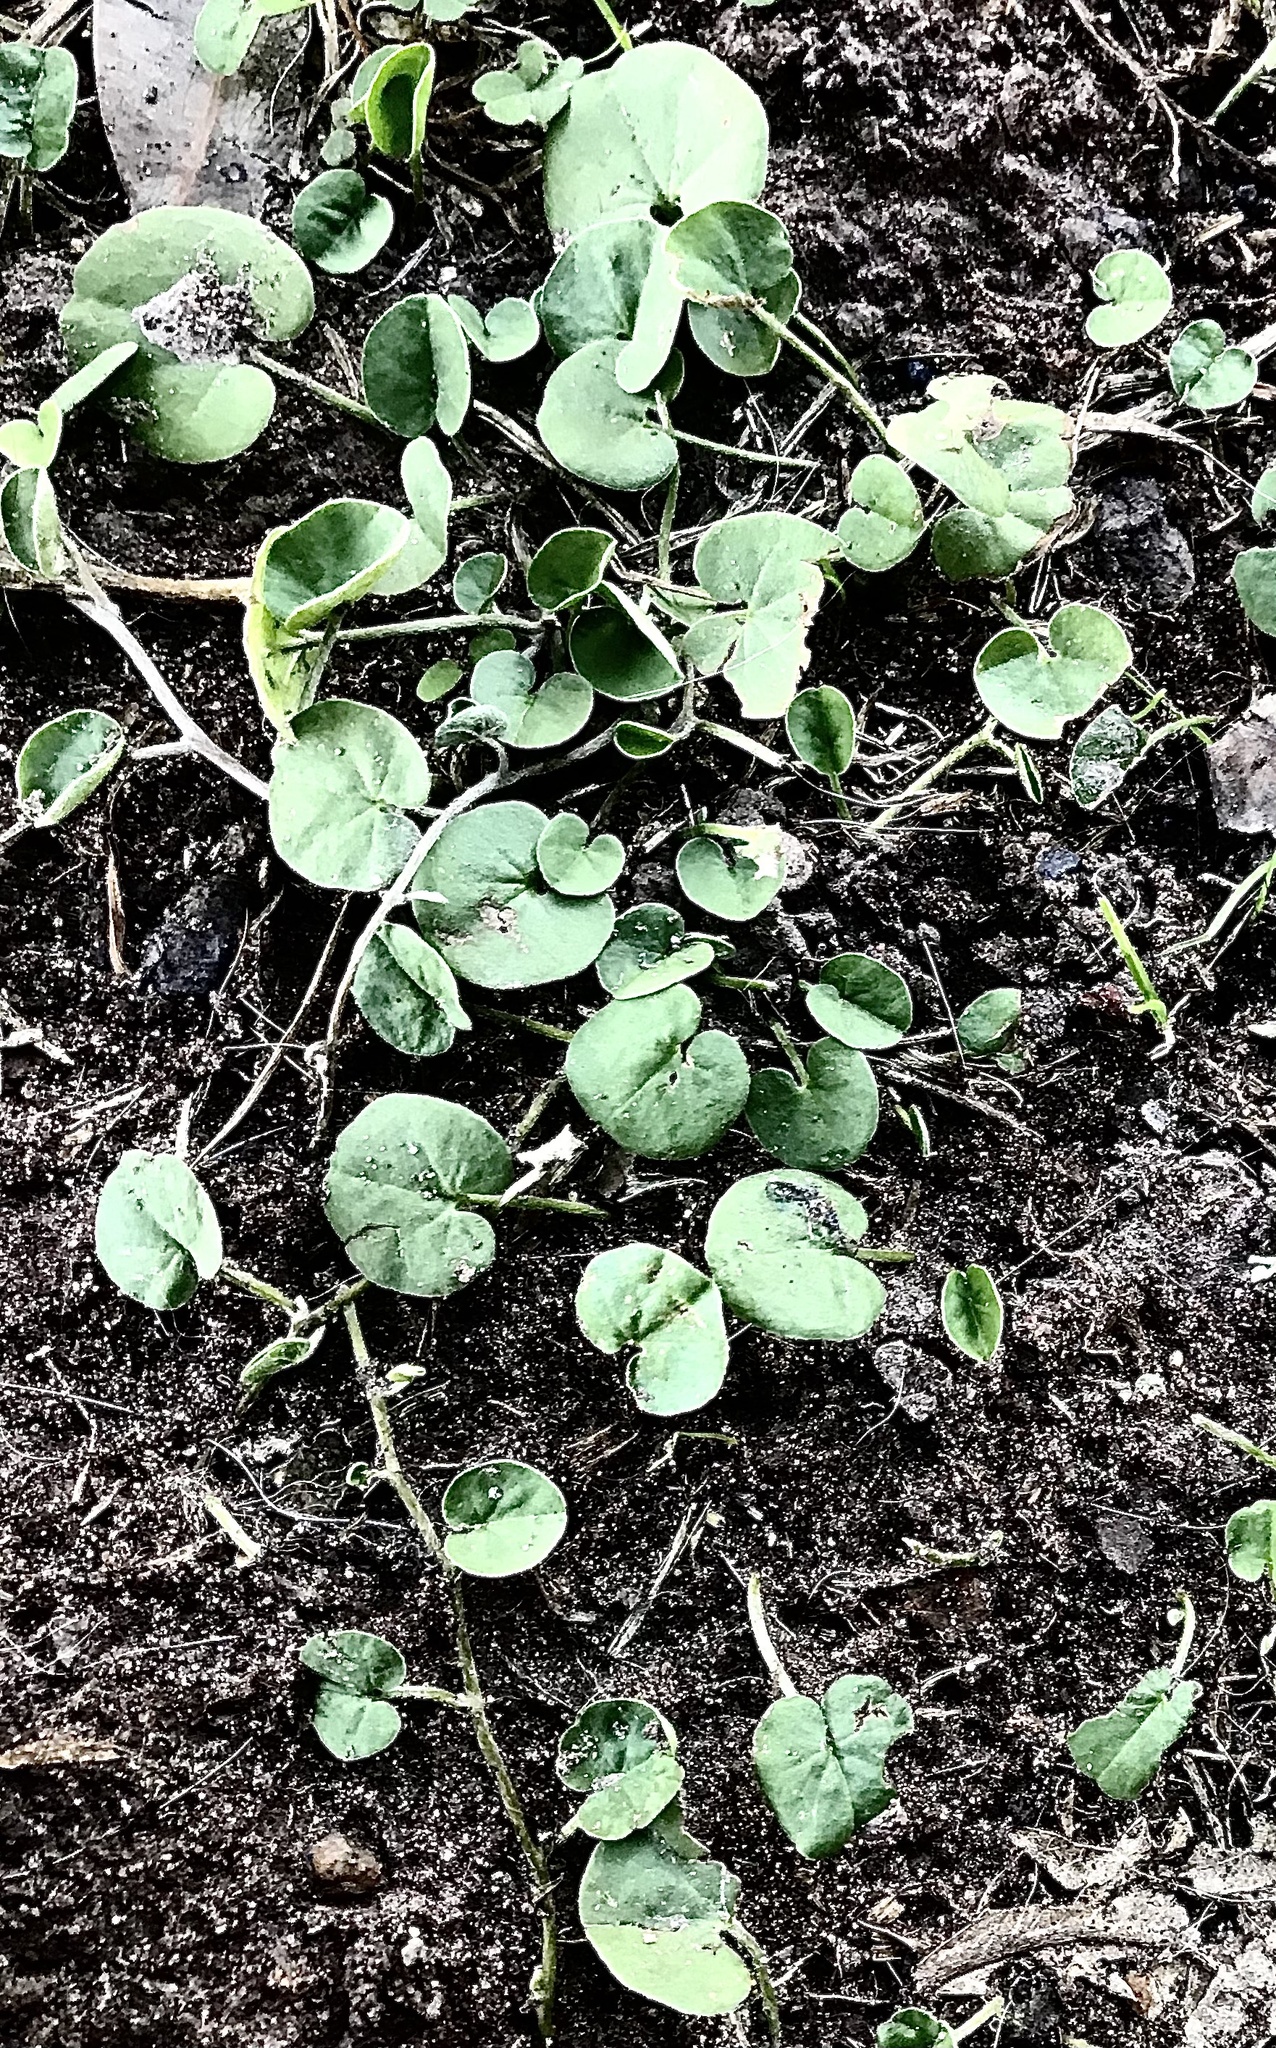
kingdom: Plantae
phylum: Tracheophyta
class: Magnoliopsida
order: Solanales
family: Convolvulaceae
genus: Dichondra
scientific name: Dichondra micrantha
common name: Kidneyweed
